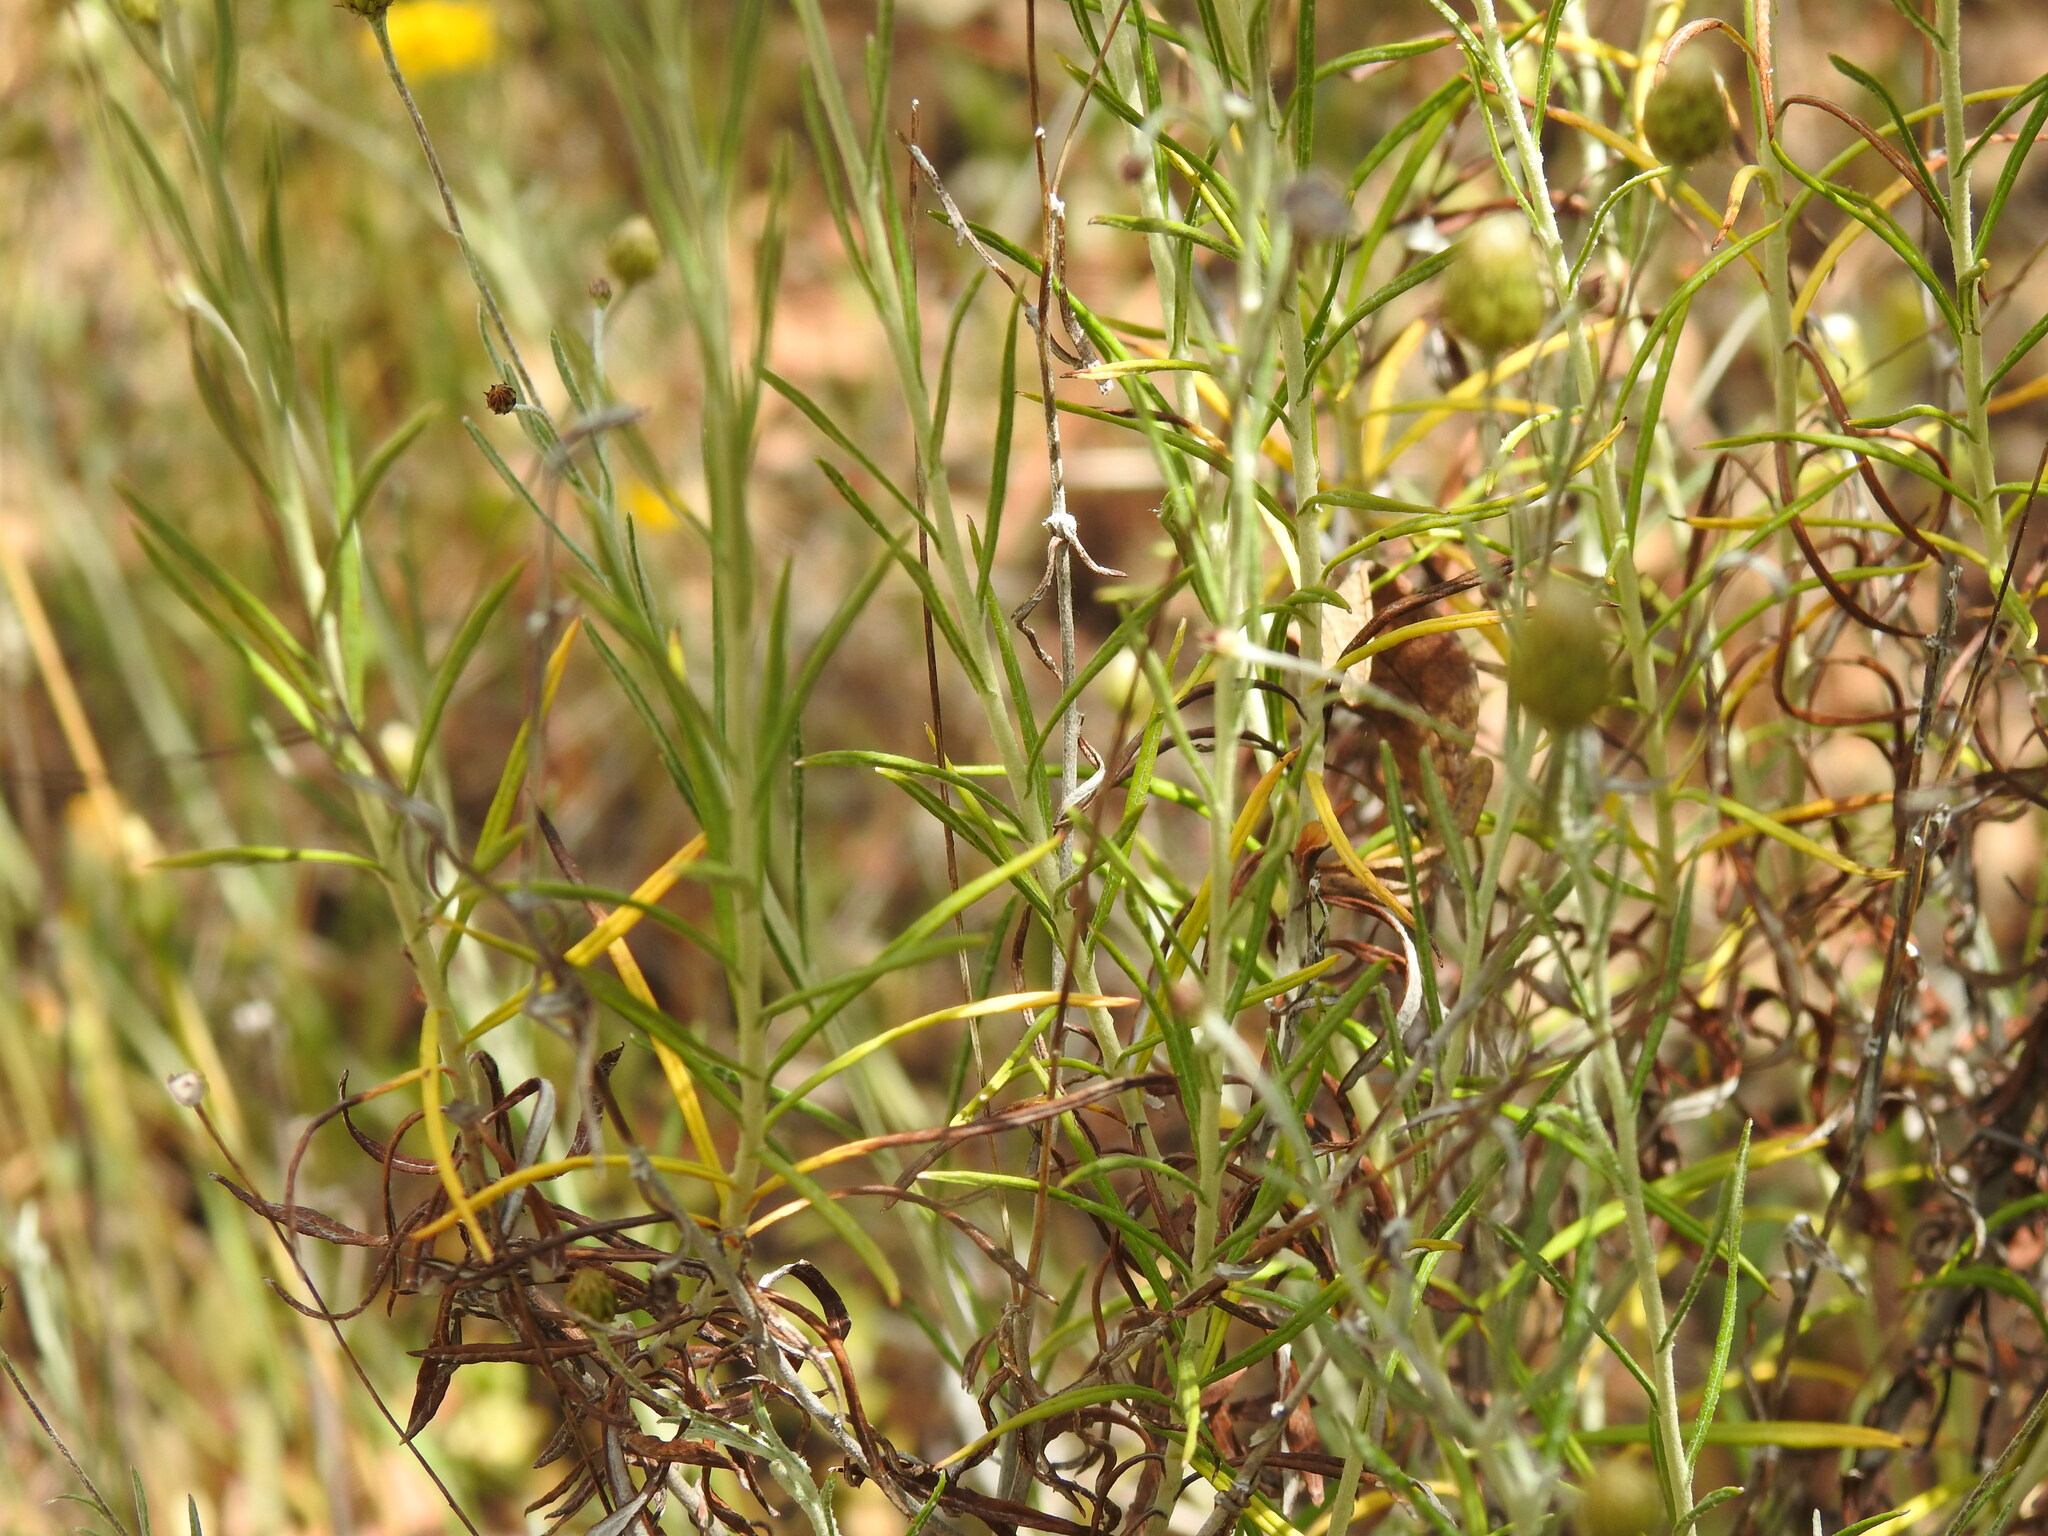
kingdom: Plantae
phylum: Tracheophyta
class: Magnoliopsida
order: Asterales
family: Asteraceae
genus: Phagnalon
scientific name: Phagnalon saxatile
